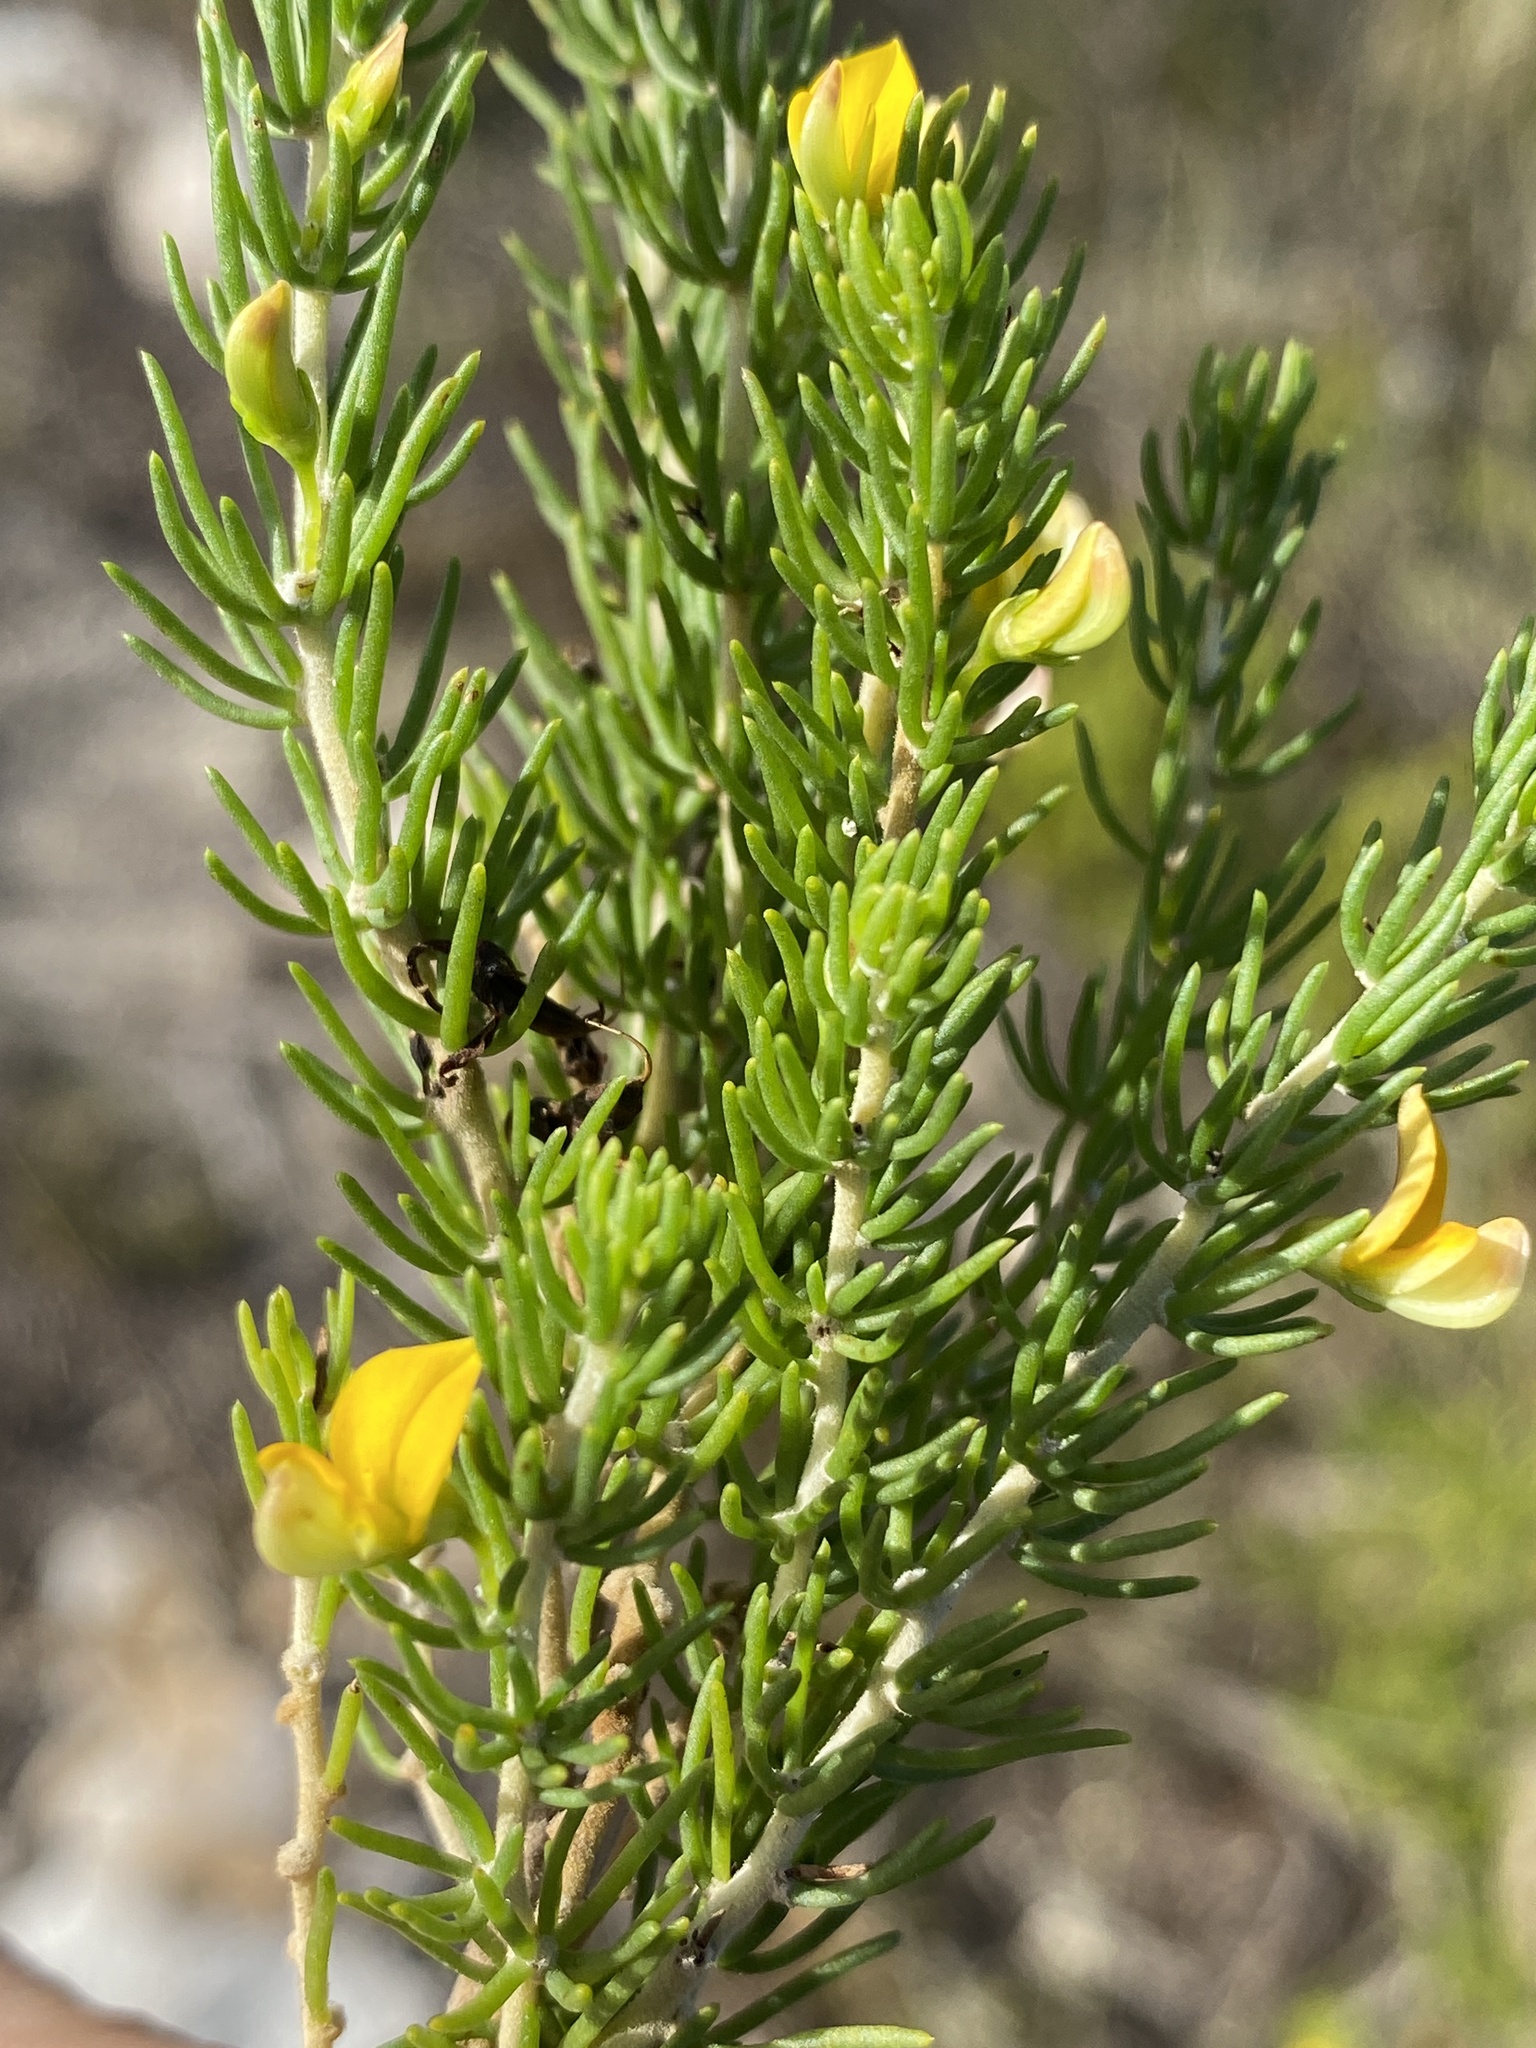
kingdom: Plantae
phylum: Tracheophyta
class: Magnoliopsida
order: Fabales
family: Fabaceae
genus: Aspalathus
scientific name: Aspalathus sanguinea
